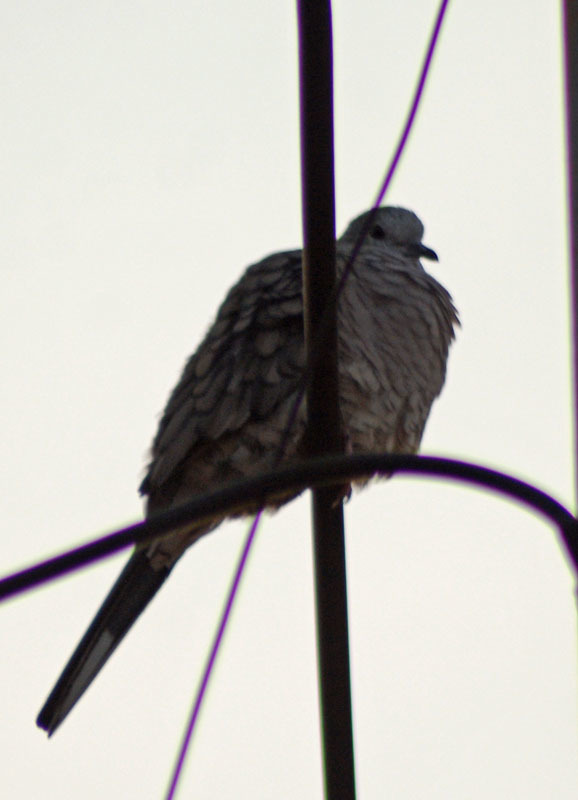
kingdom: Animalia
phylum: Chordata
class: Aves
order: Columbiformes
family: Columbidae
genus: Columbina
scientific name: Columbina inca
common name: Inca dove
